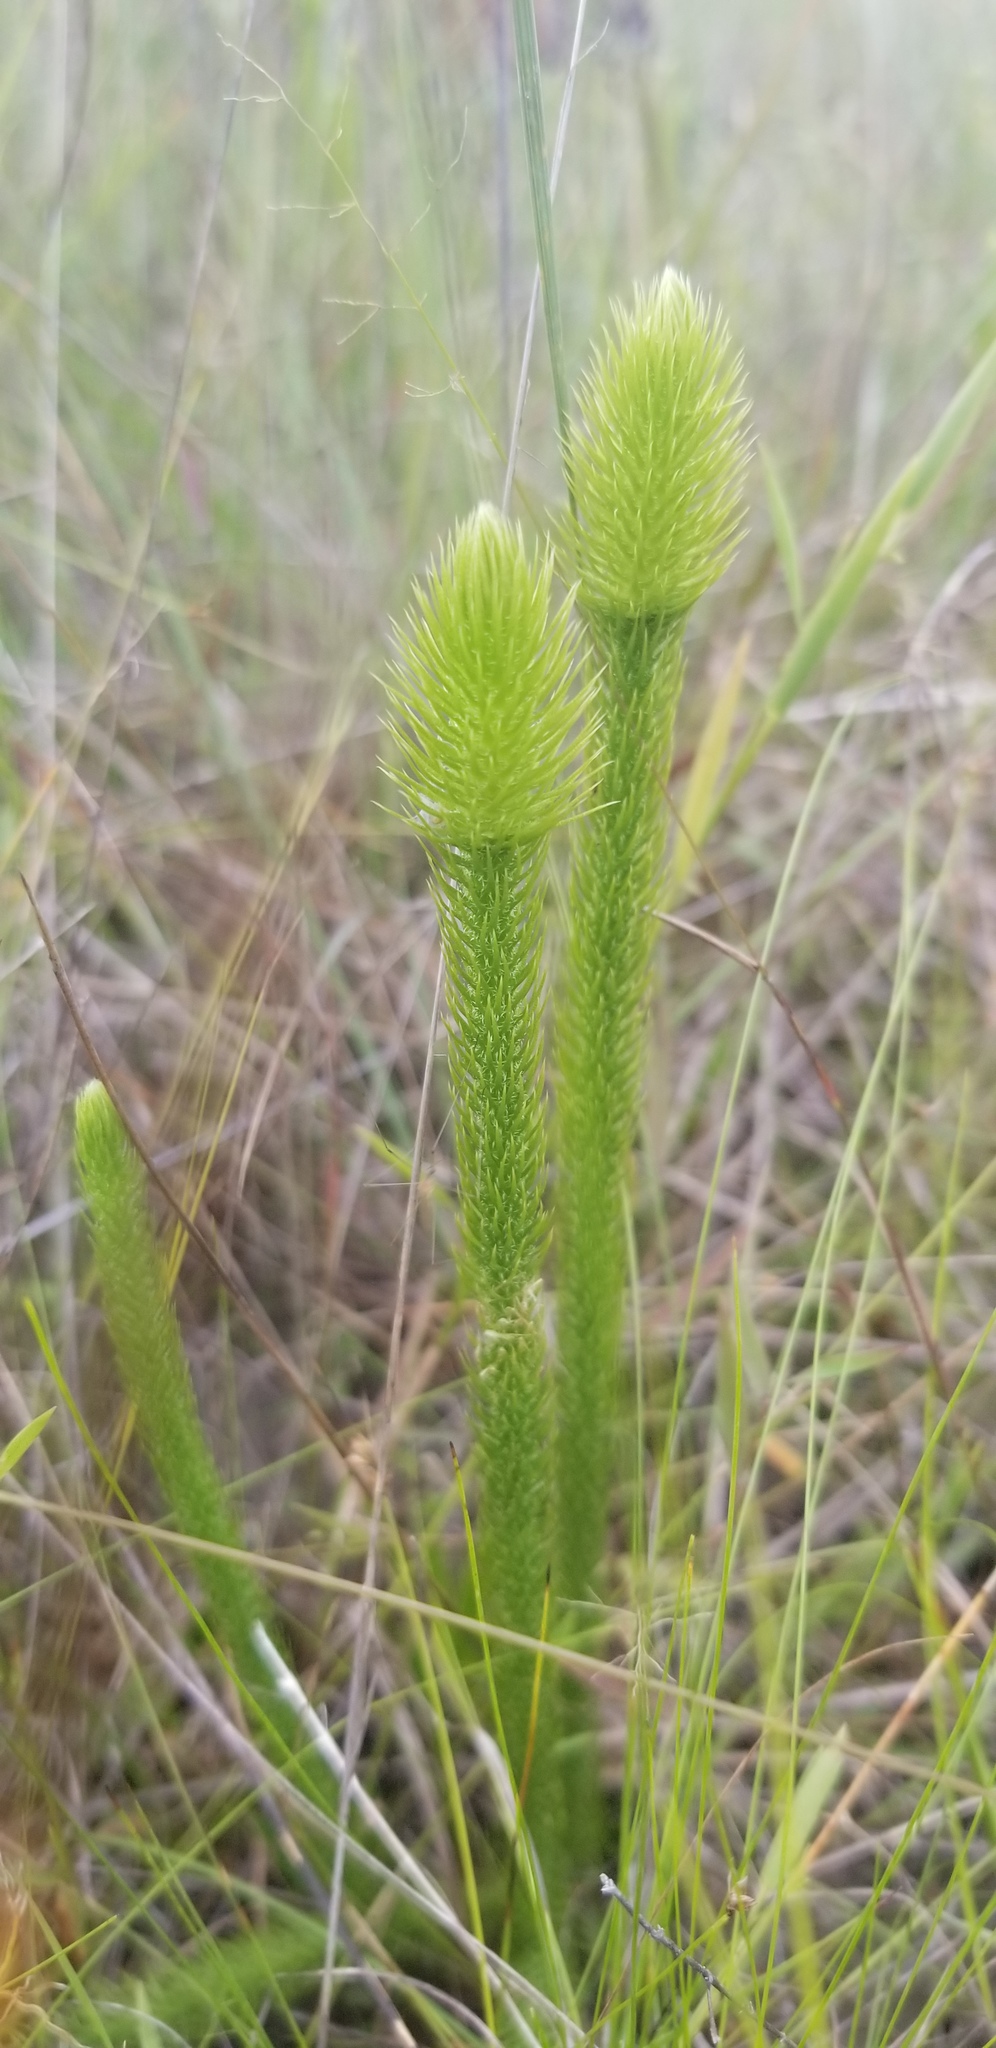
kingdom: Plantae
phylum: Tracheophyta
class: Lycopodiopsida
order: Lycopodiales
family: Lycopodiaceae
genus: Lycopodiella
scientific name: Lycopodiella alopecuroides
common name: Foxtail clubmoss
